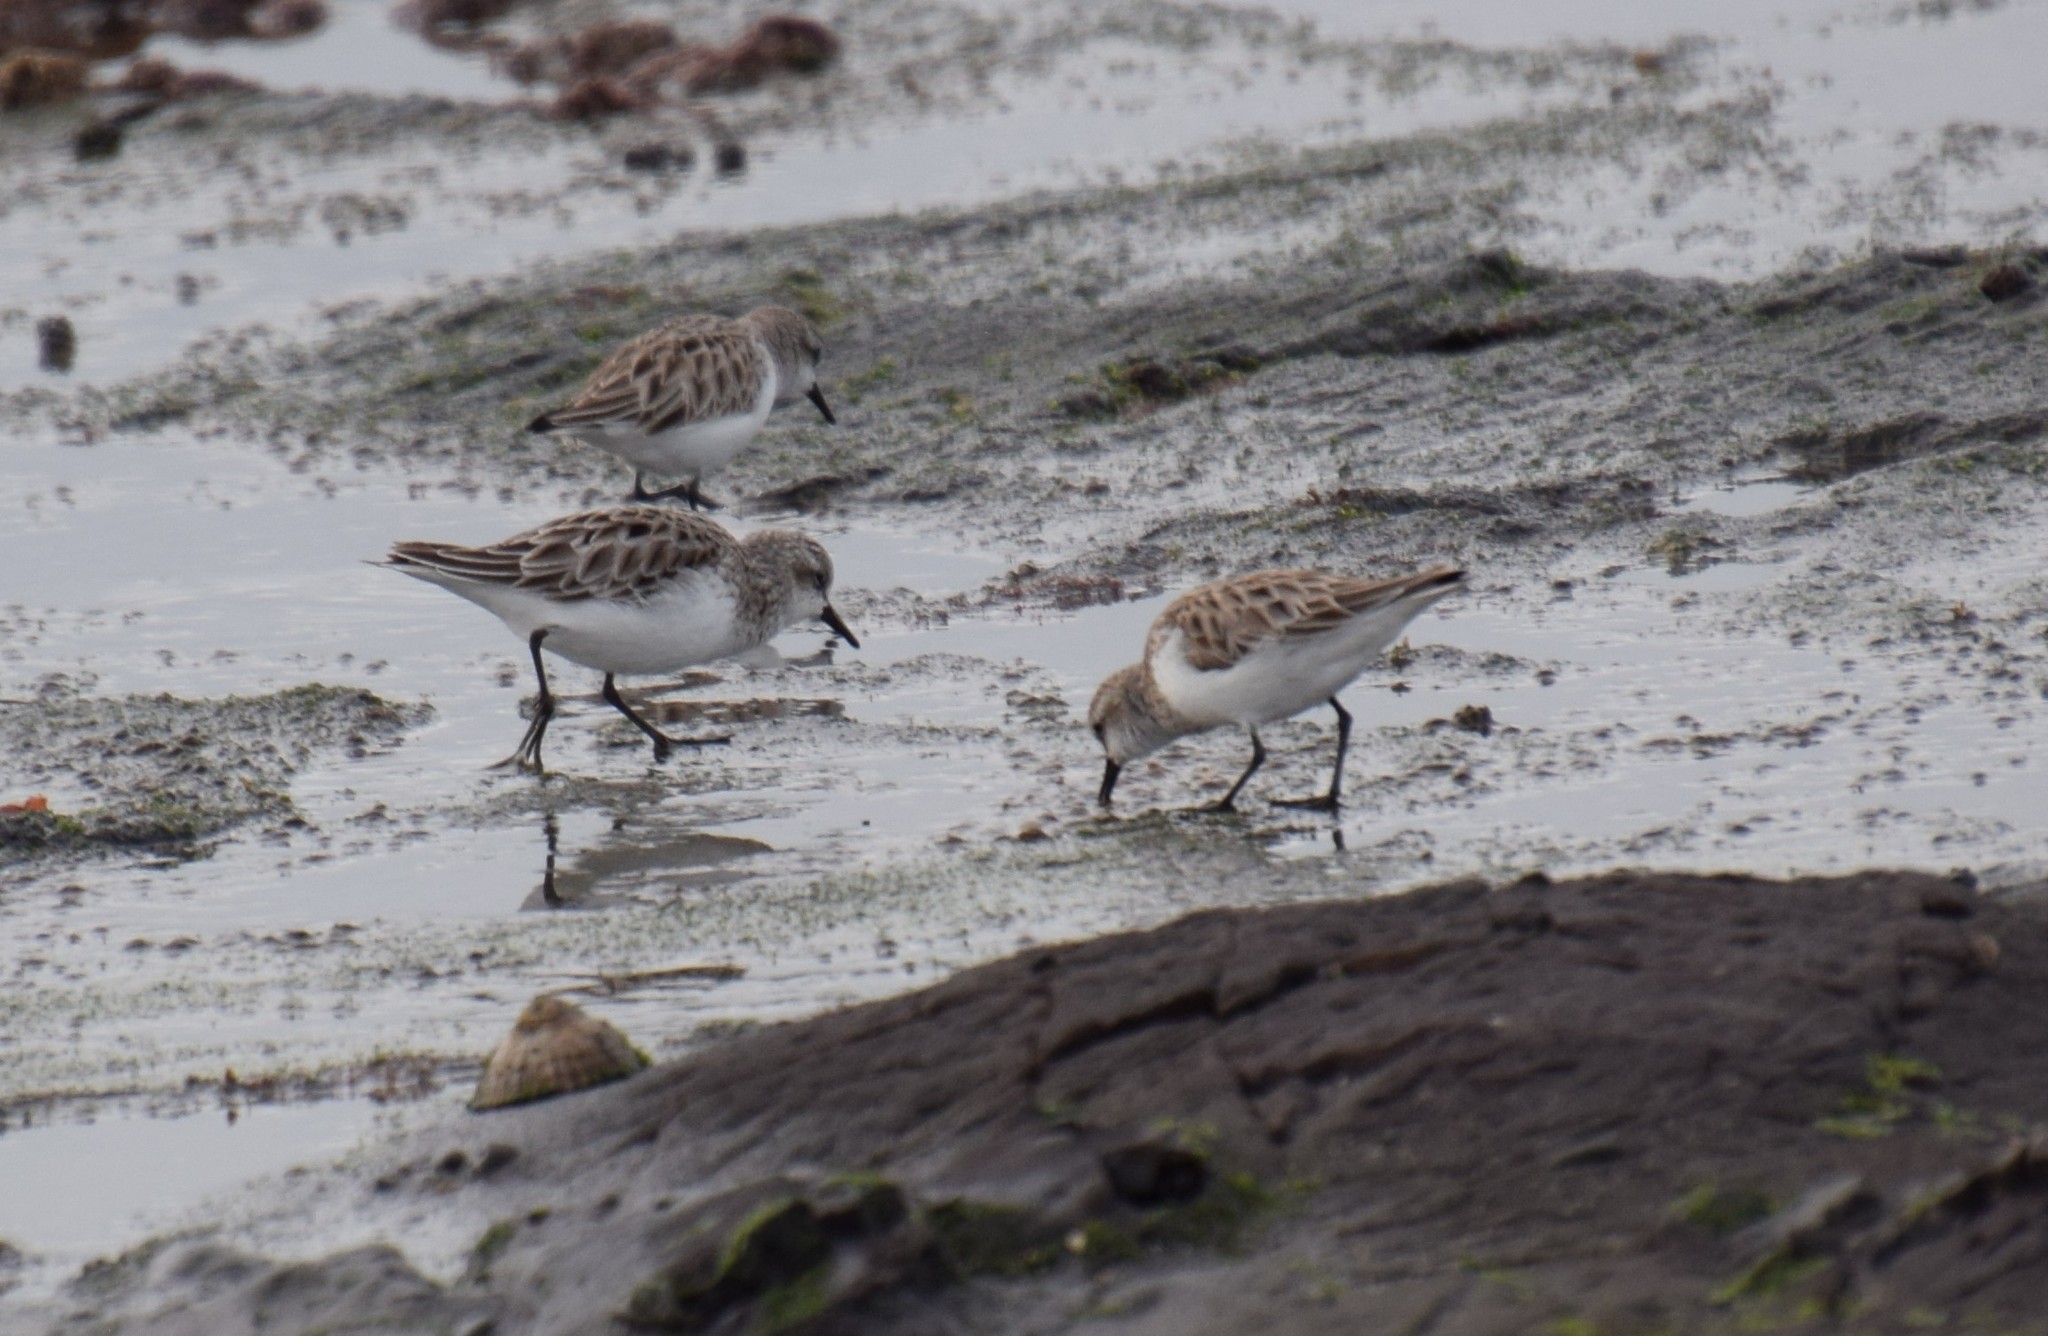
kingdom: Animalia
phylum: Chordata
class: Aves
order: Charadriiformes
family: Scolopacidae
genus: Calidris
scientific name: Calidris ruficollis
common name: Red-necked stint
